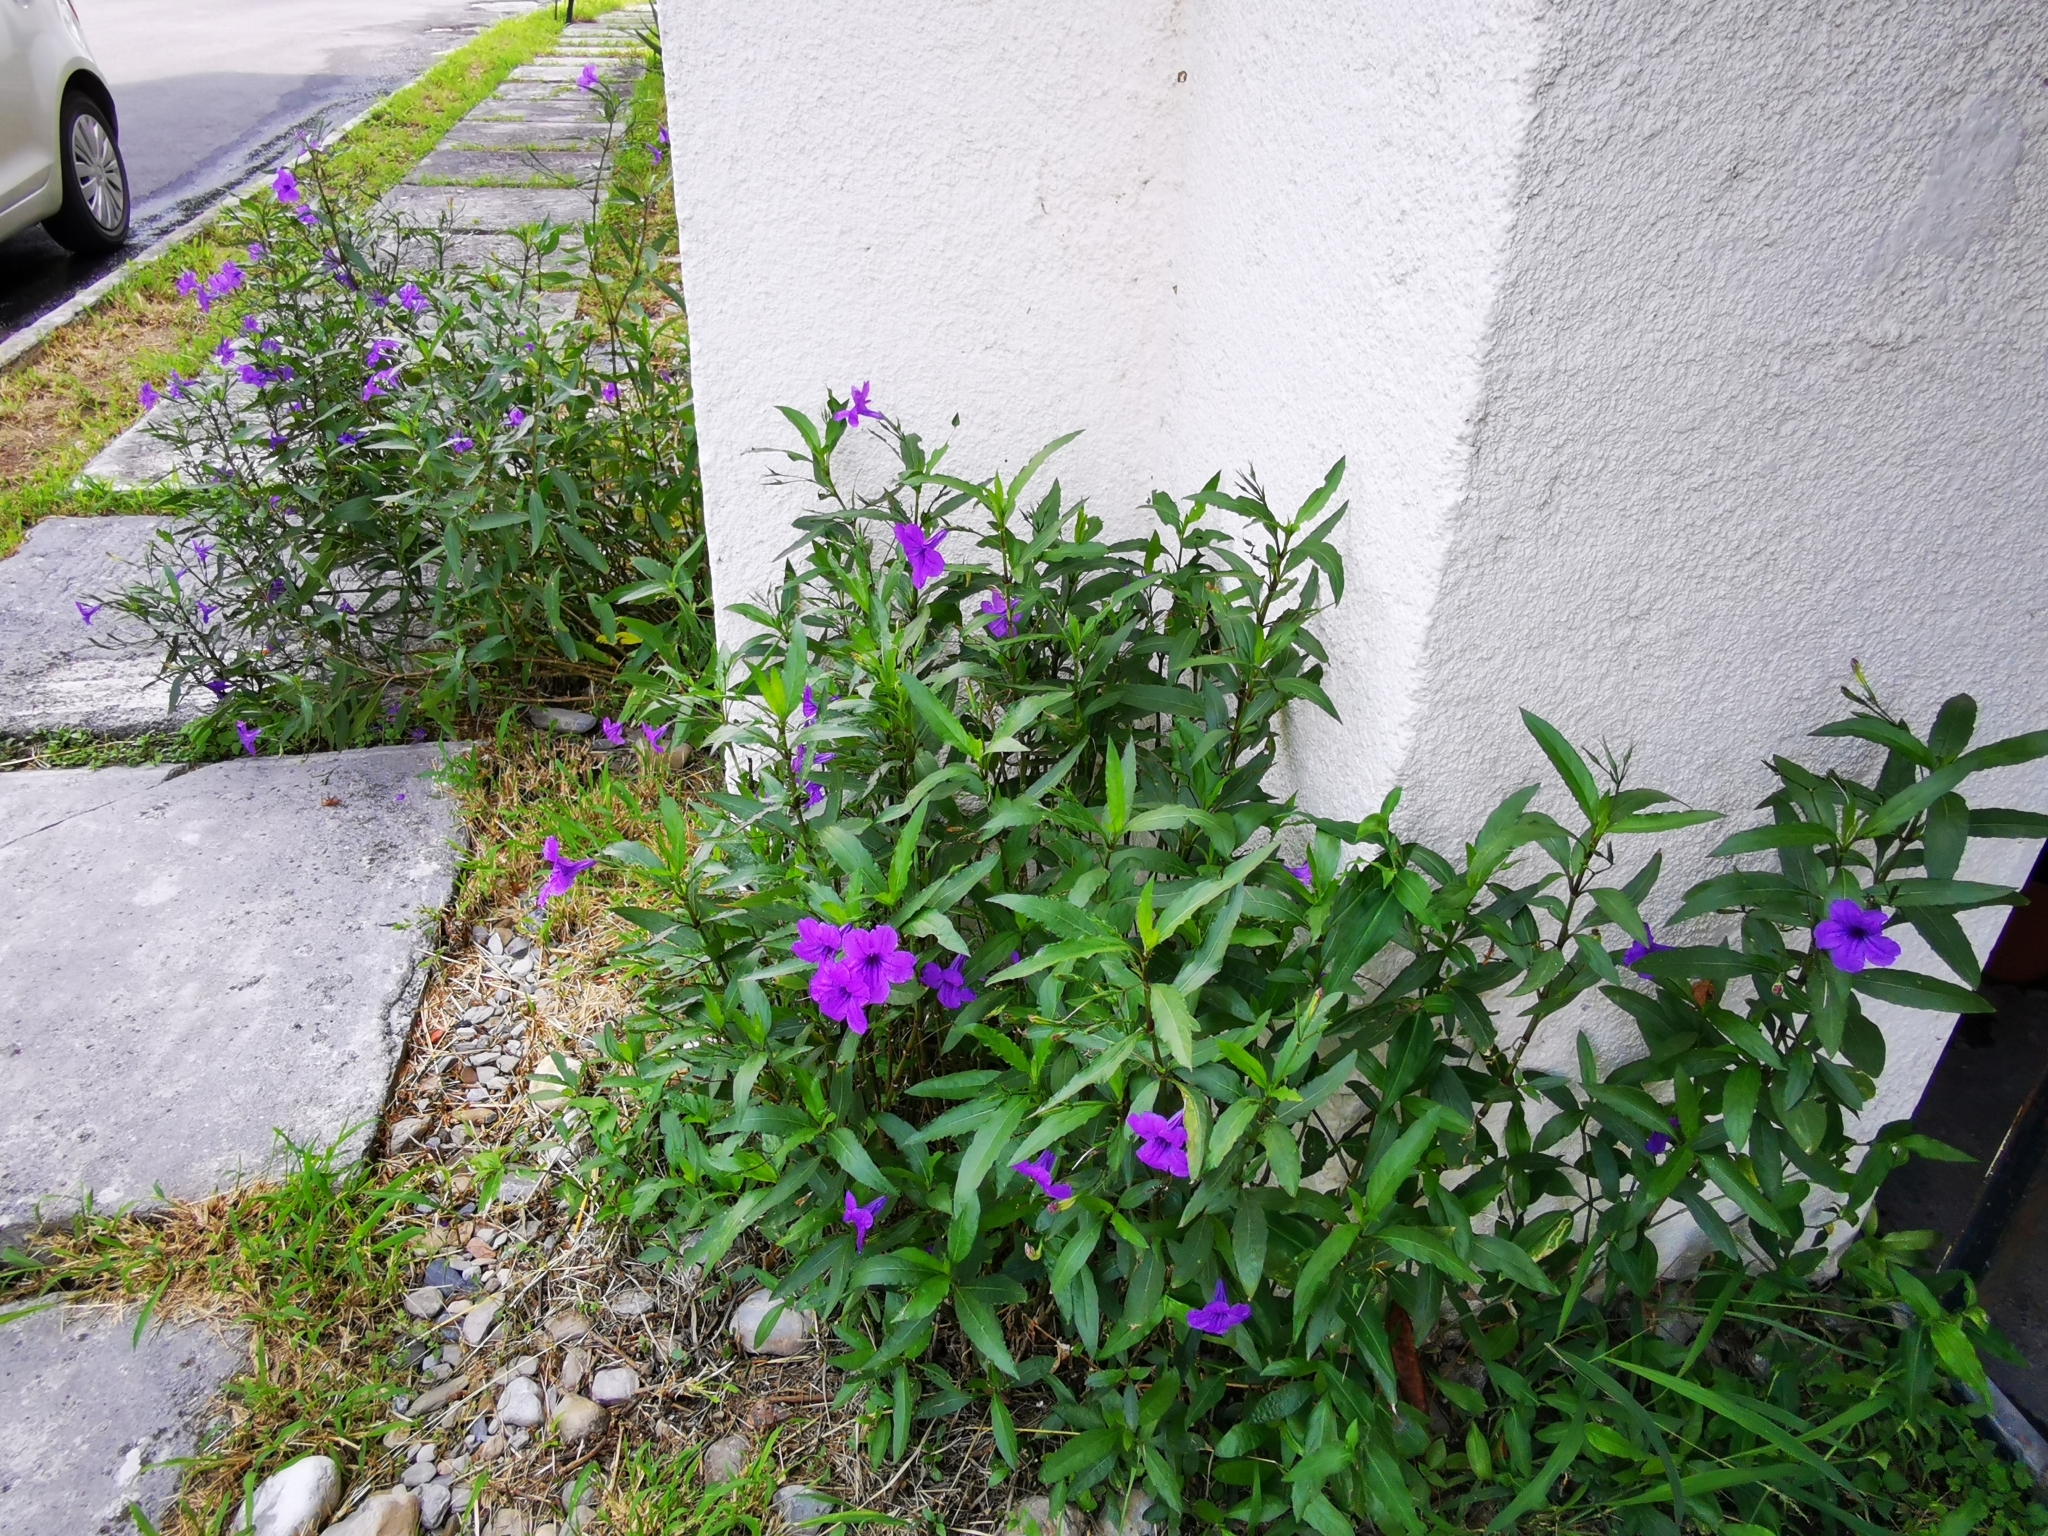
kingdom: Plantae
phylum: Tracheophyta
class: Magnoliopsida
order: Lamiales
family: Acanthaceae
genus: Ruellia
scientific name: Ruellia simplex
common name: Softseed wild petunia
